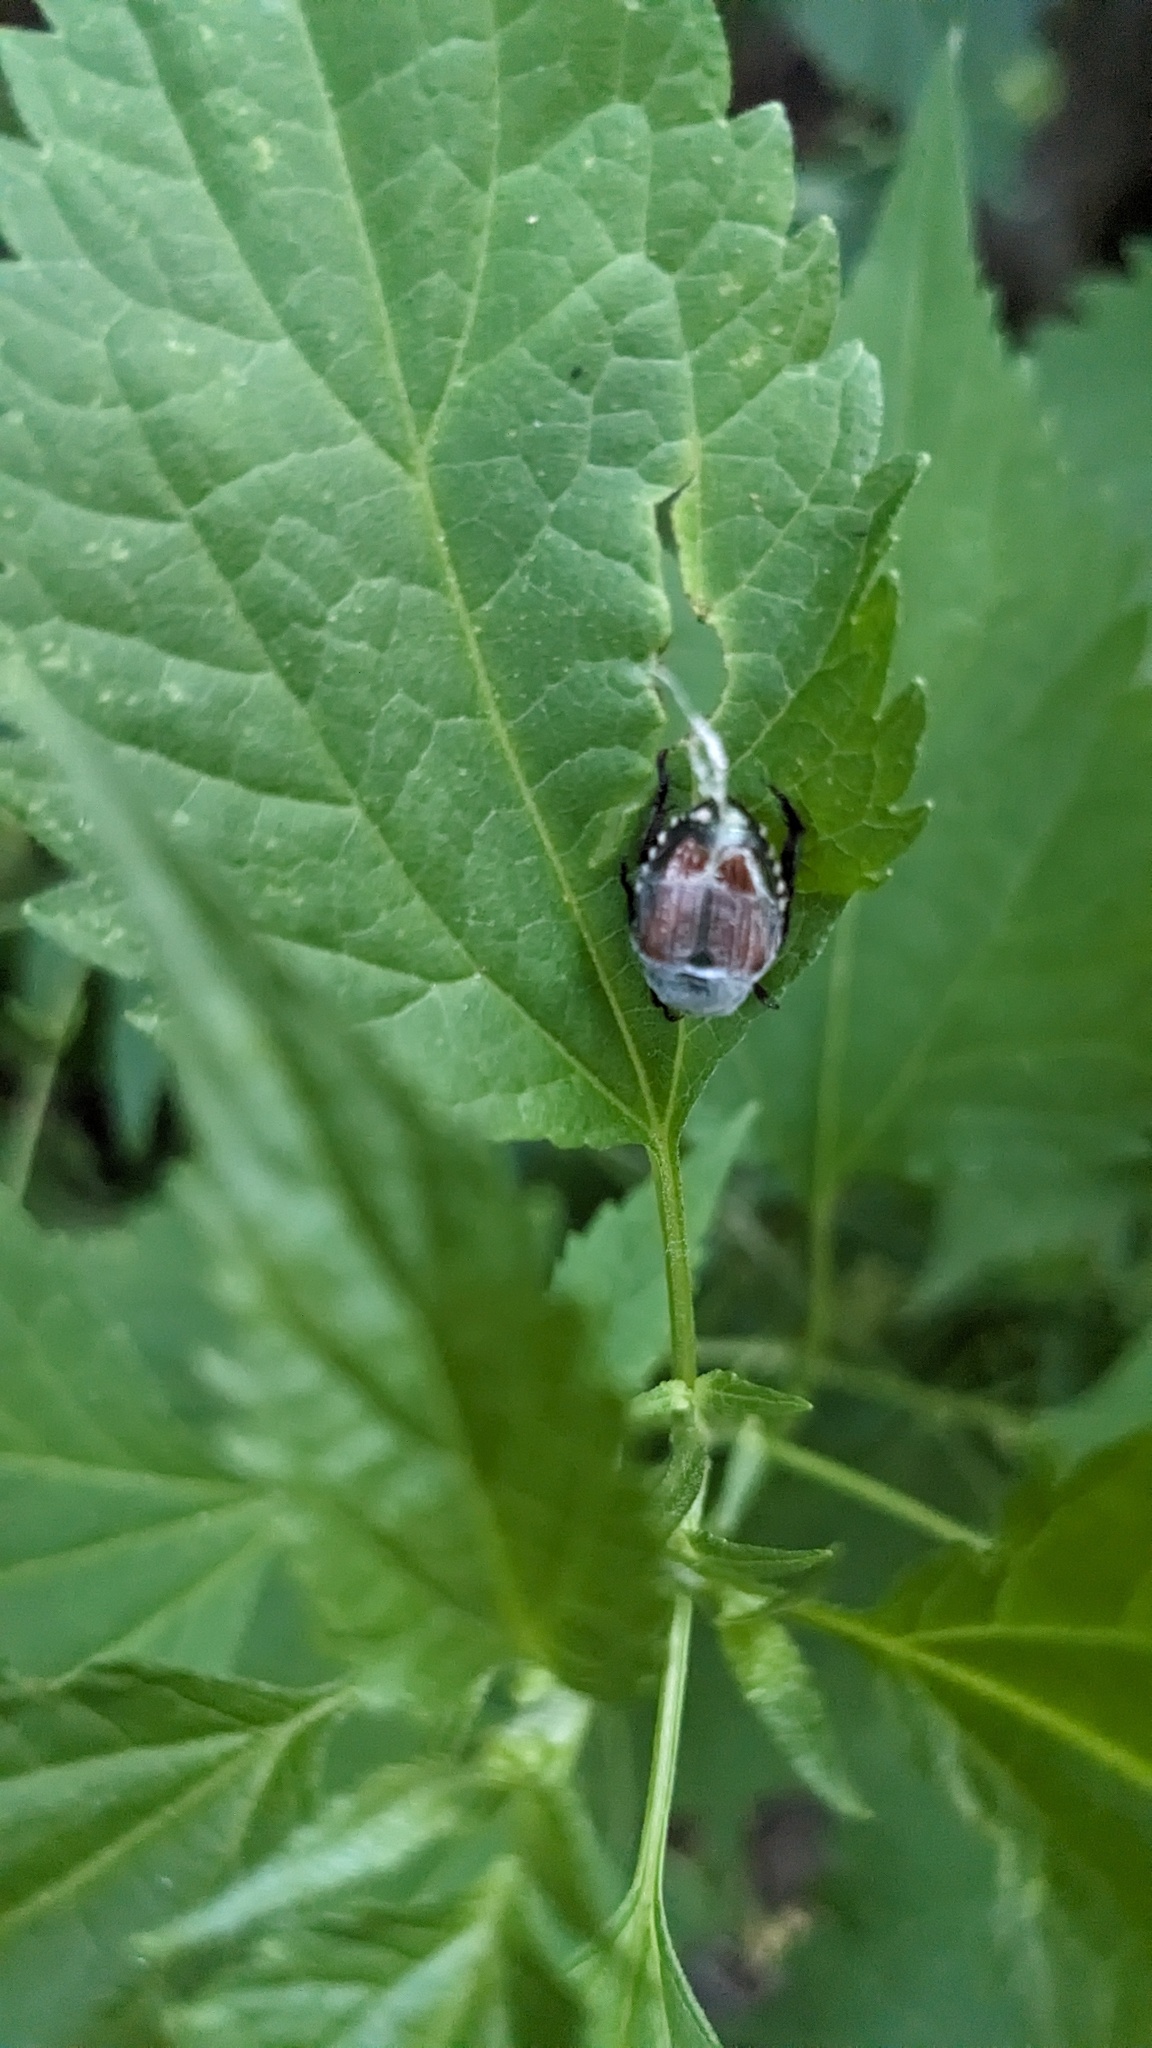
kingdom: Animalia
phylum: Arthropoda
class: Insecta
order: Coleoptera
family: Scarabaeidae
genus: Popillia
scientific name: Popillia japonica
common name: Japanese beetle
